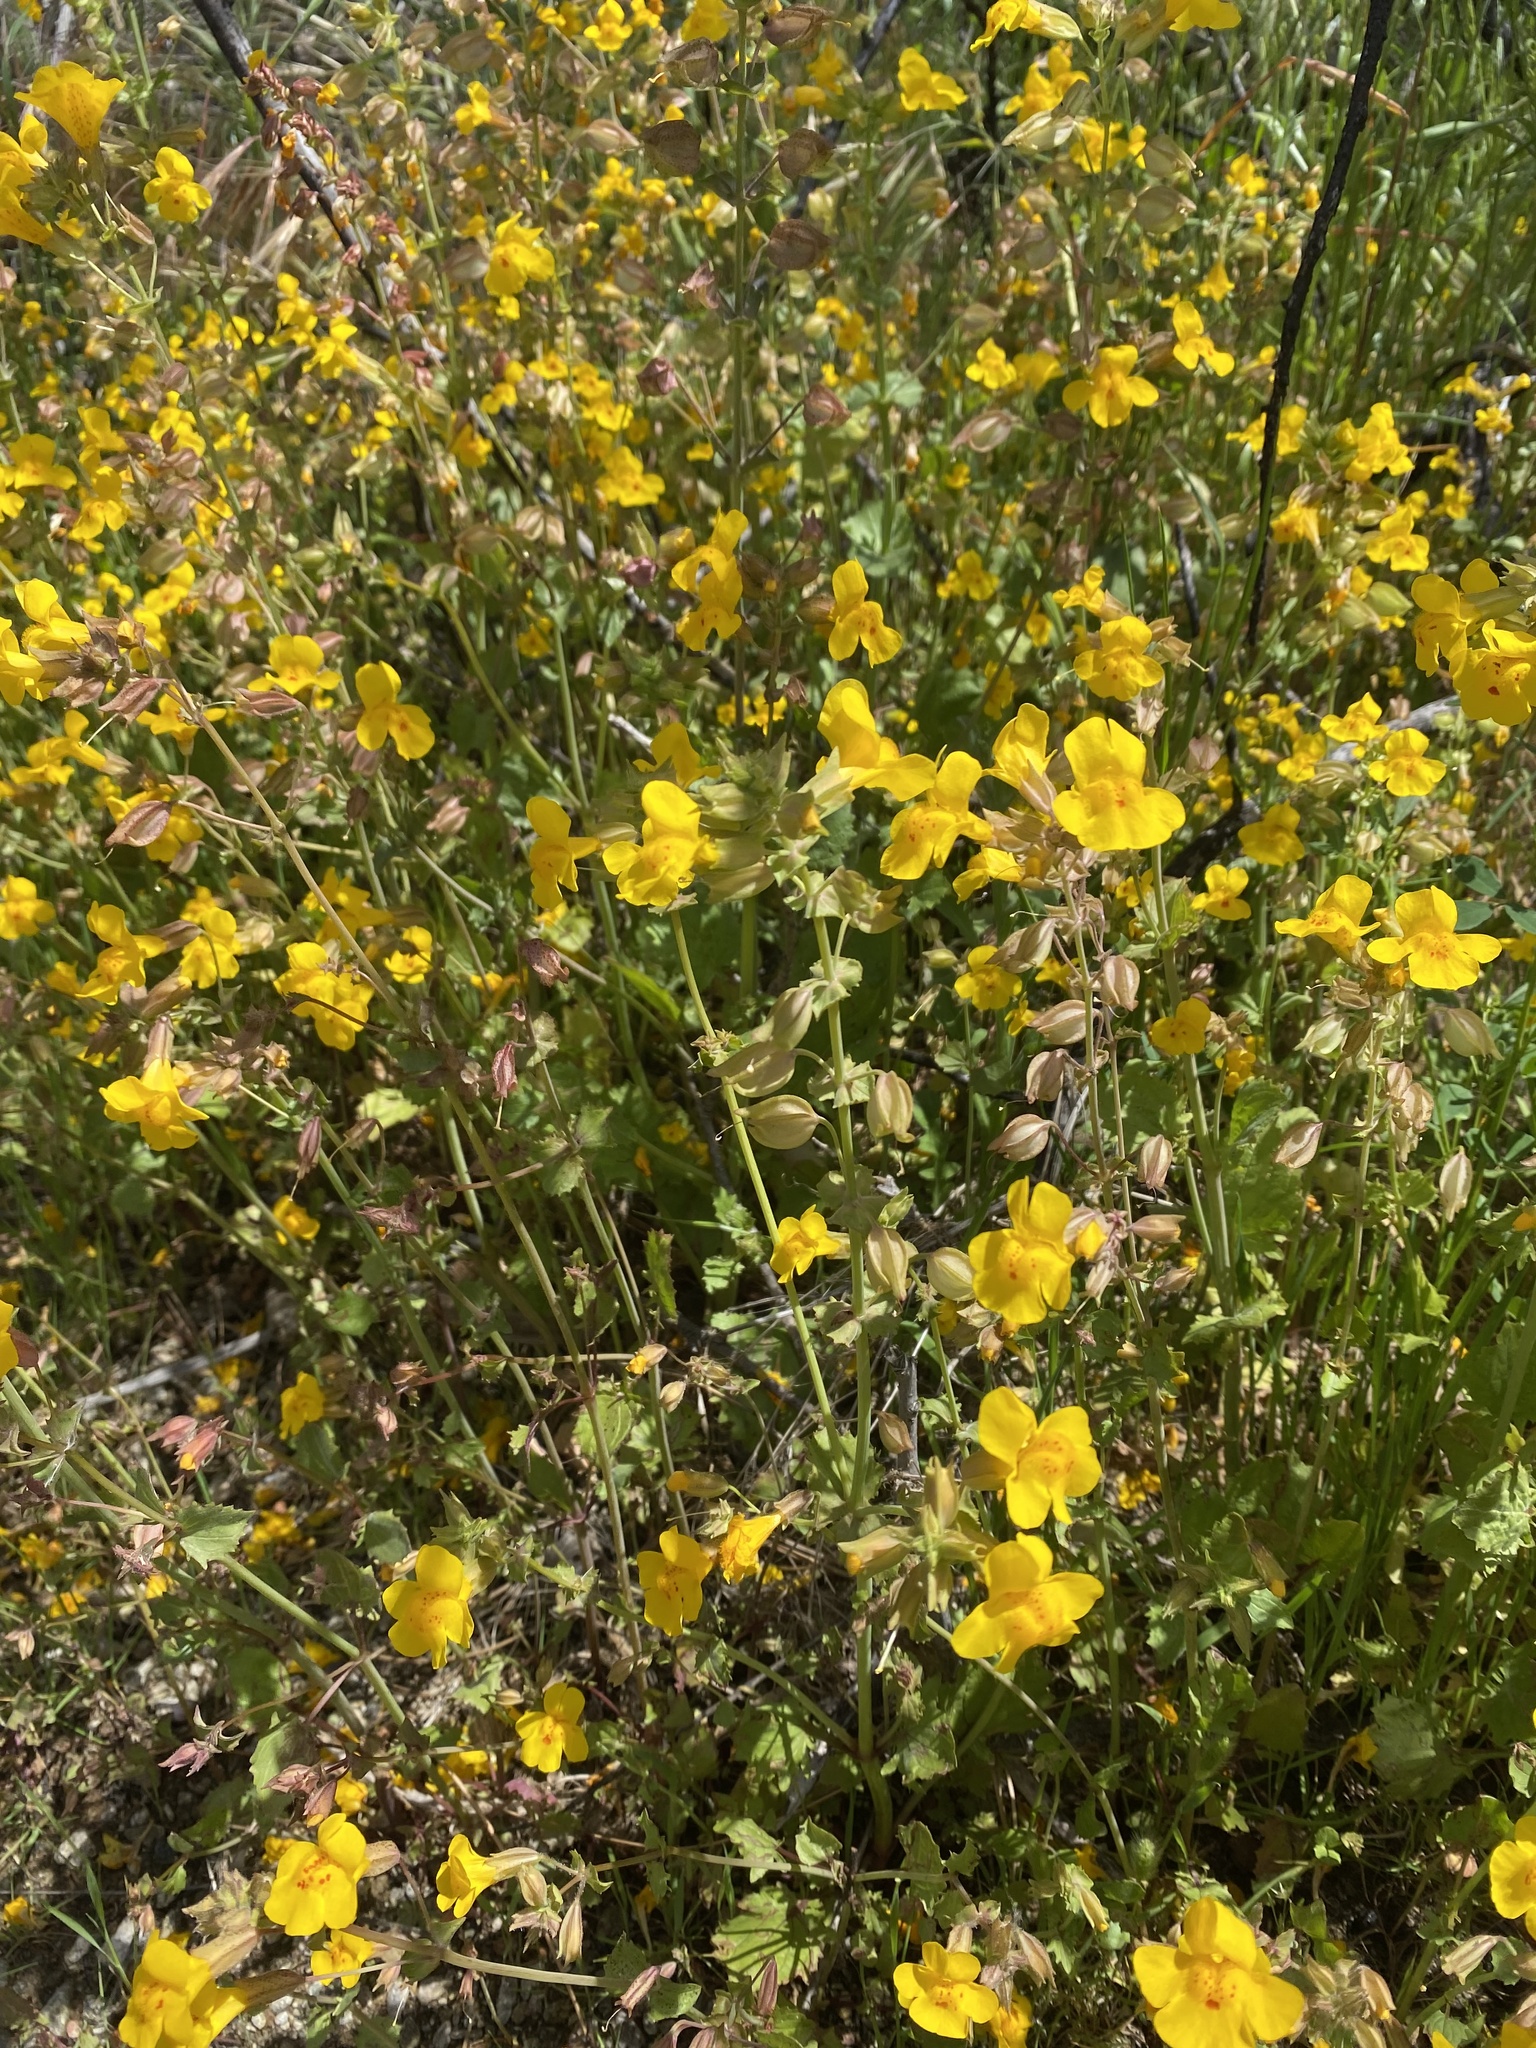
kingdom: Plantae
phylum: Tracheophyta
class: Magnoliopsida
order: Lamiales
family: Phrymaceae
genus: Erythranthe
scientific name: Erythranthe guttata
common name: Monkeyflower
